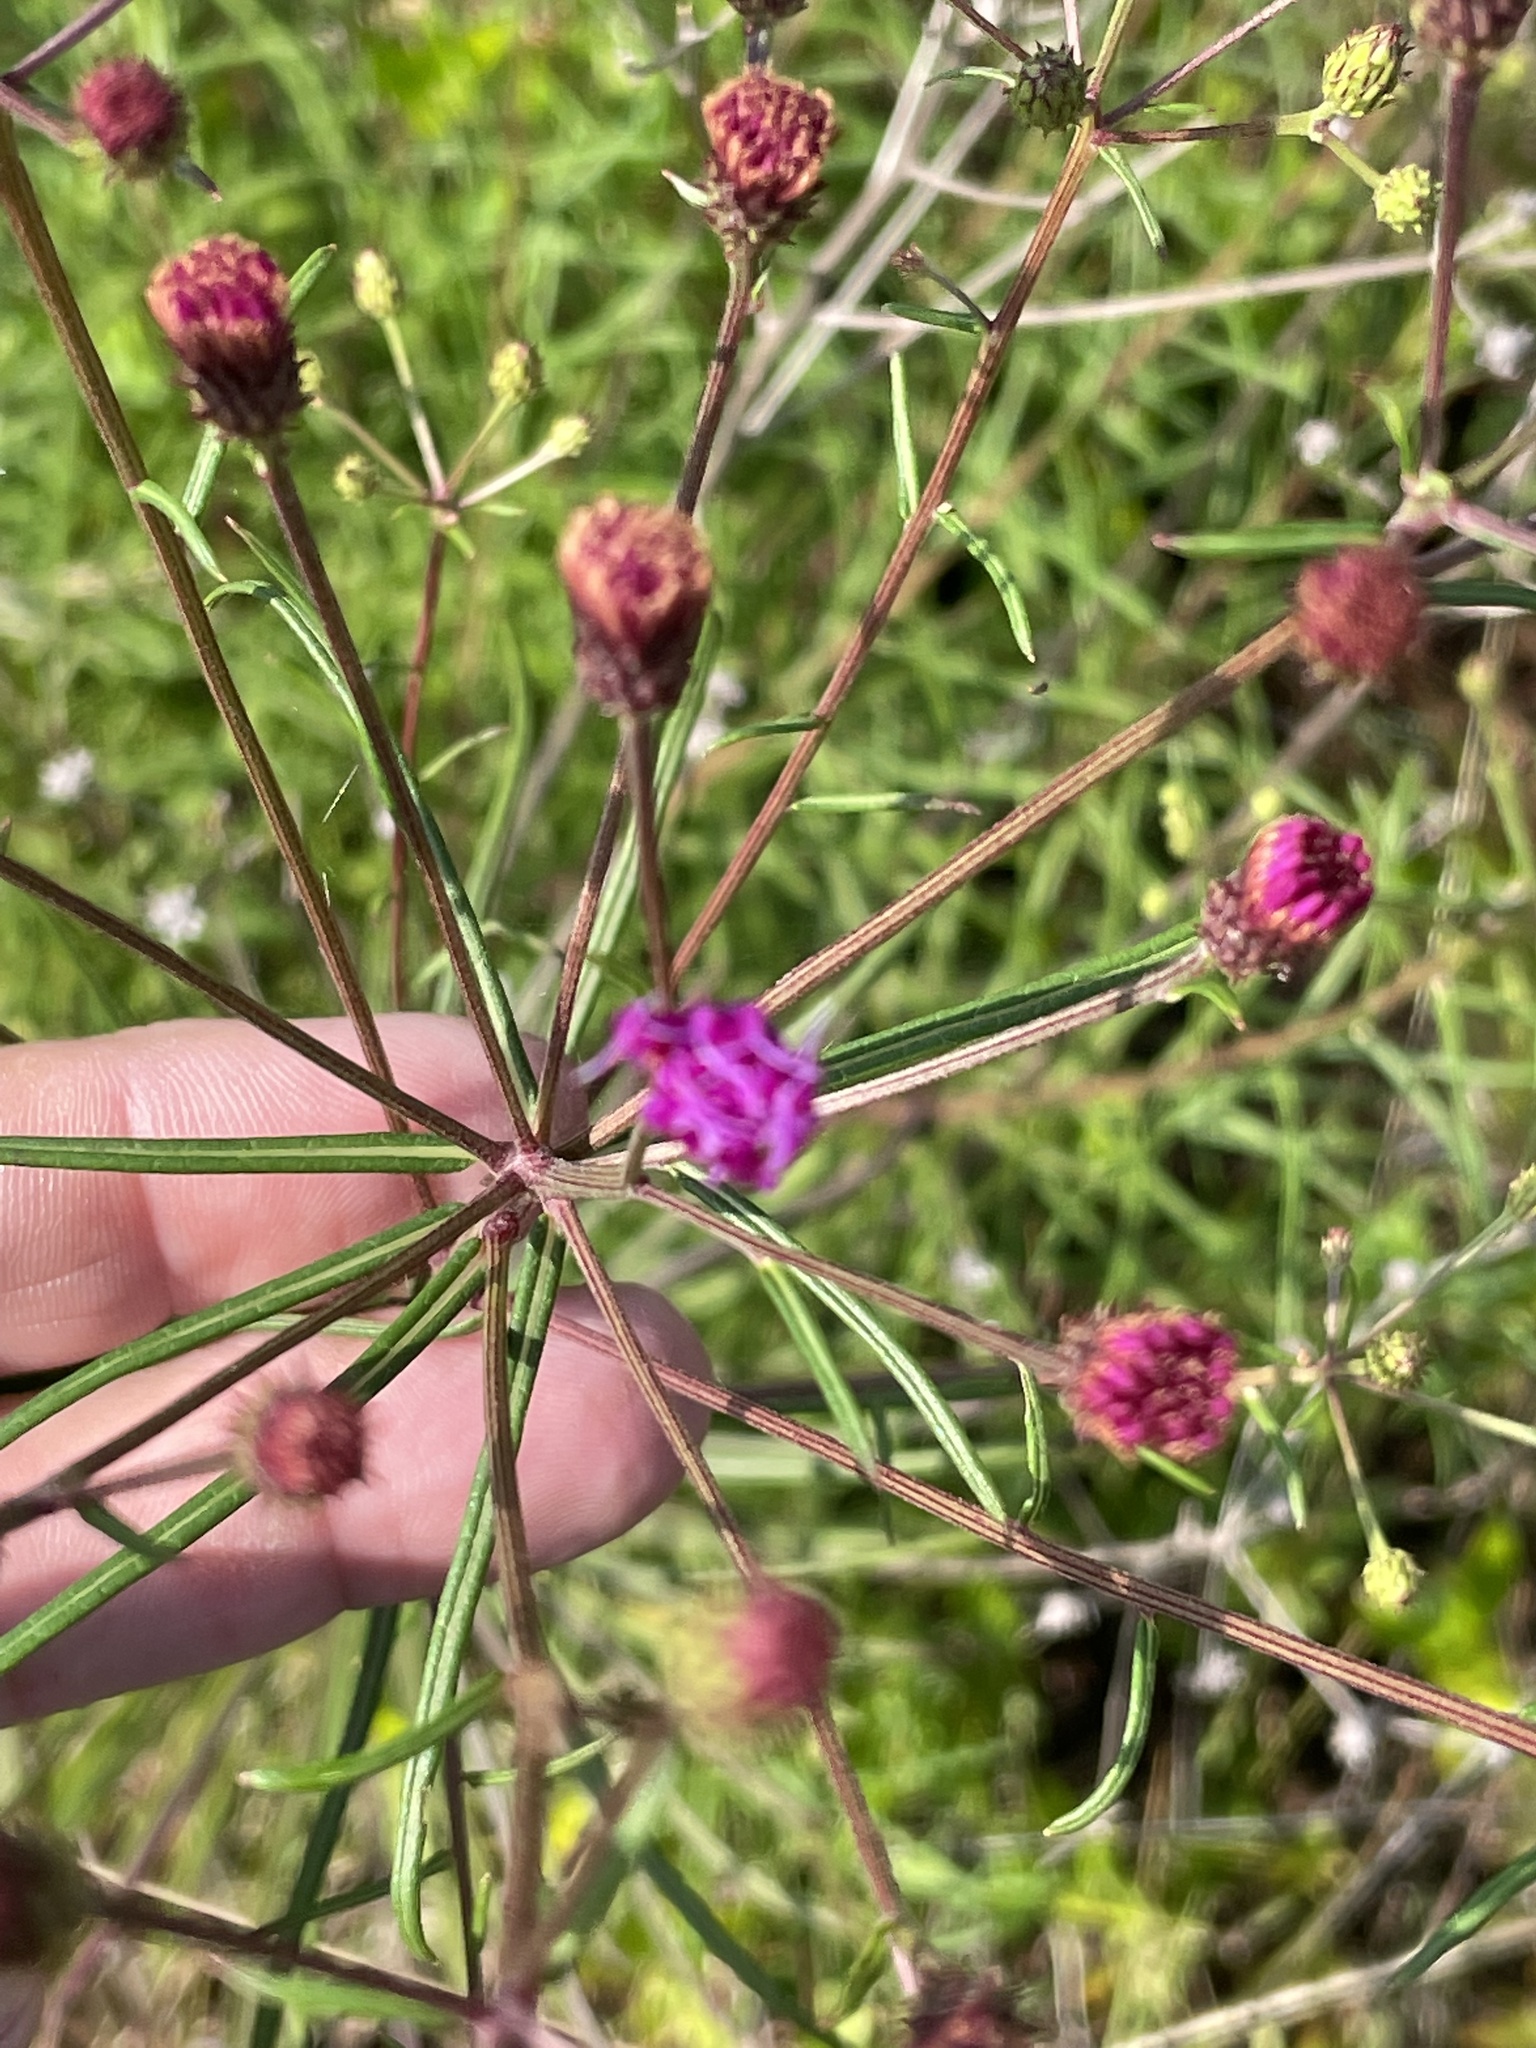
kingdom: Plantae
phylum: Tracheophyta
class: Magnoliopsida
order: Asterales
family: Asteraceae
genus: Vernonia
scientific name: Vernonia angustifolia
